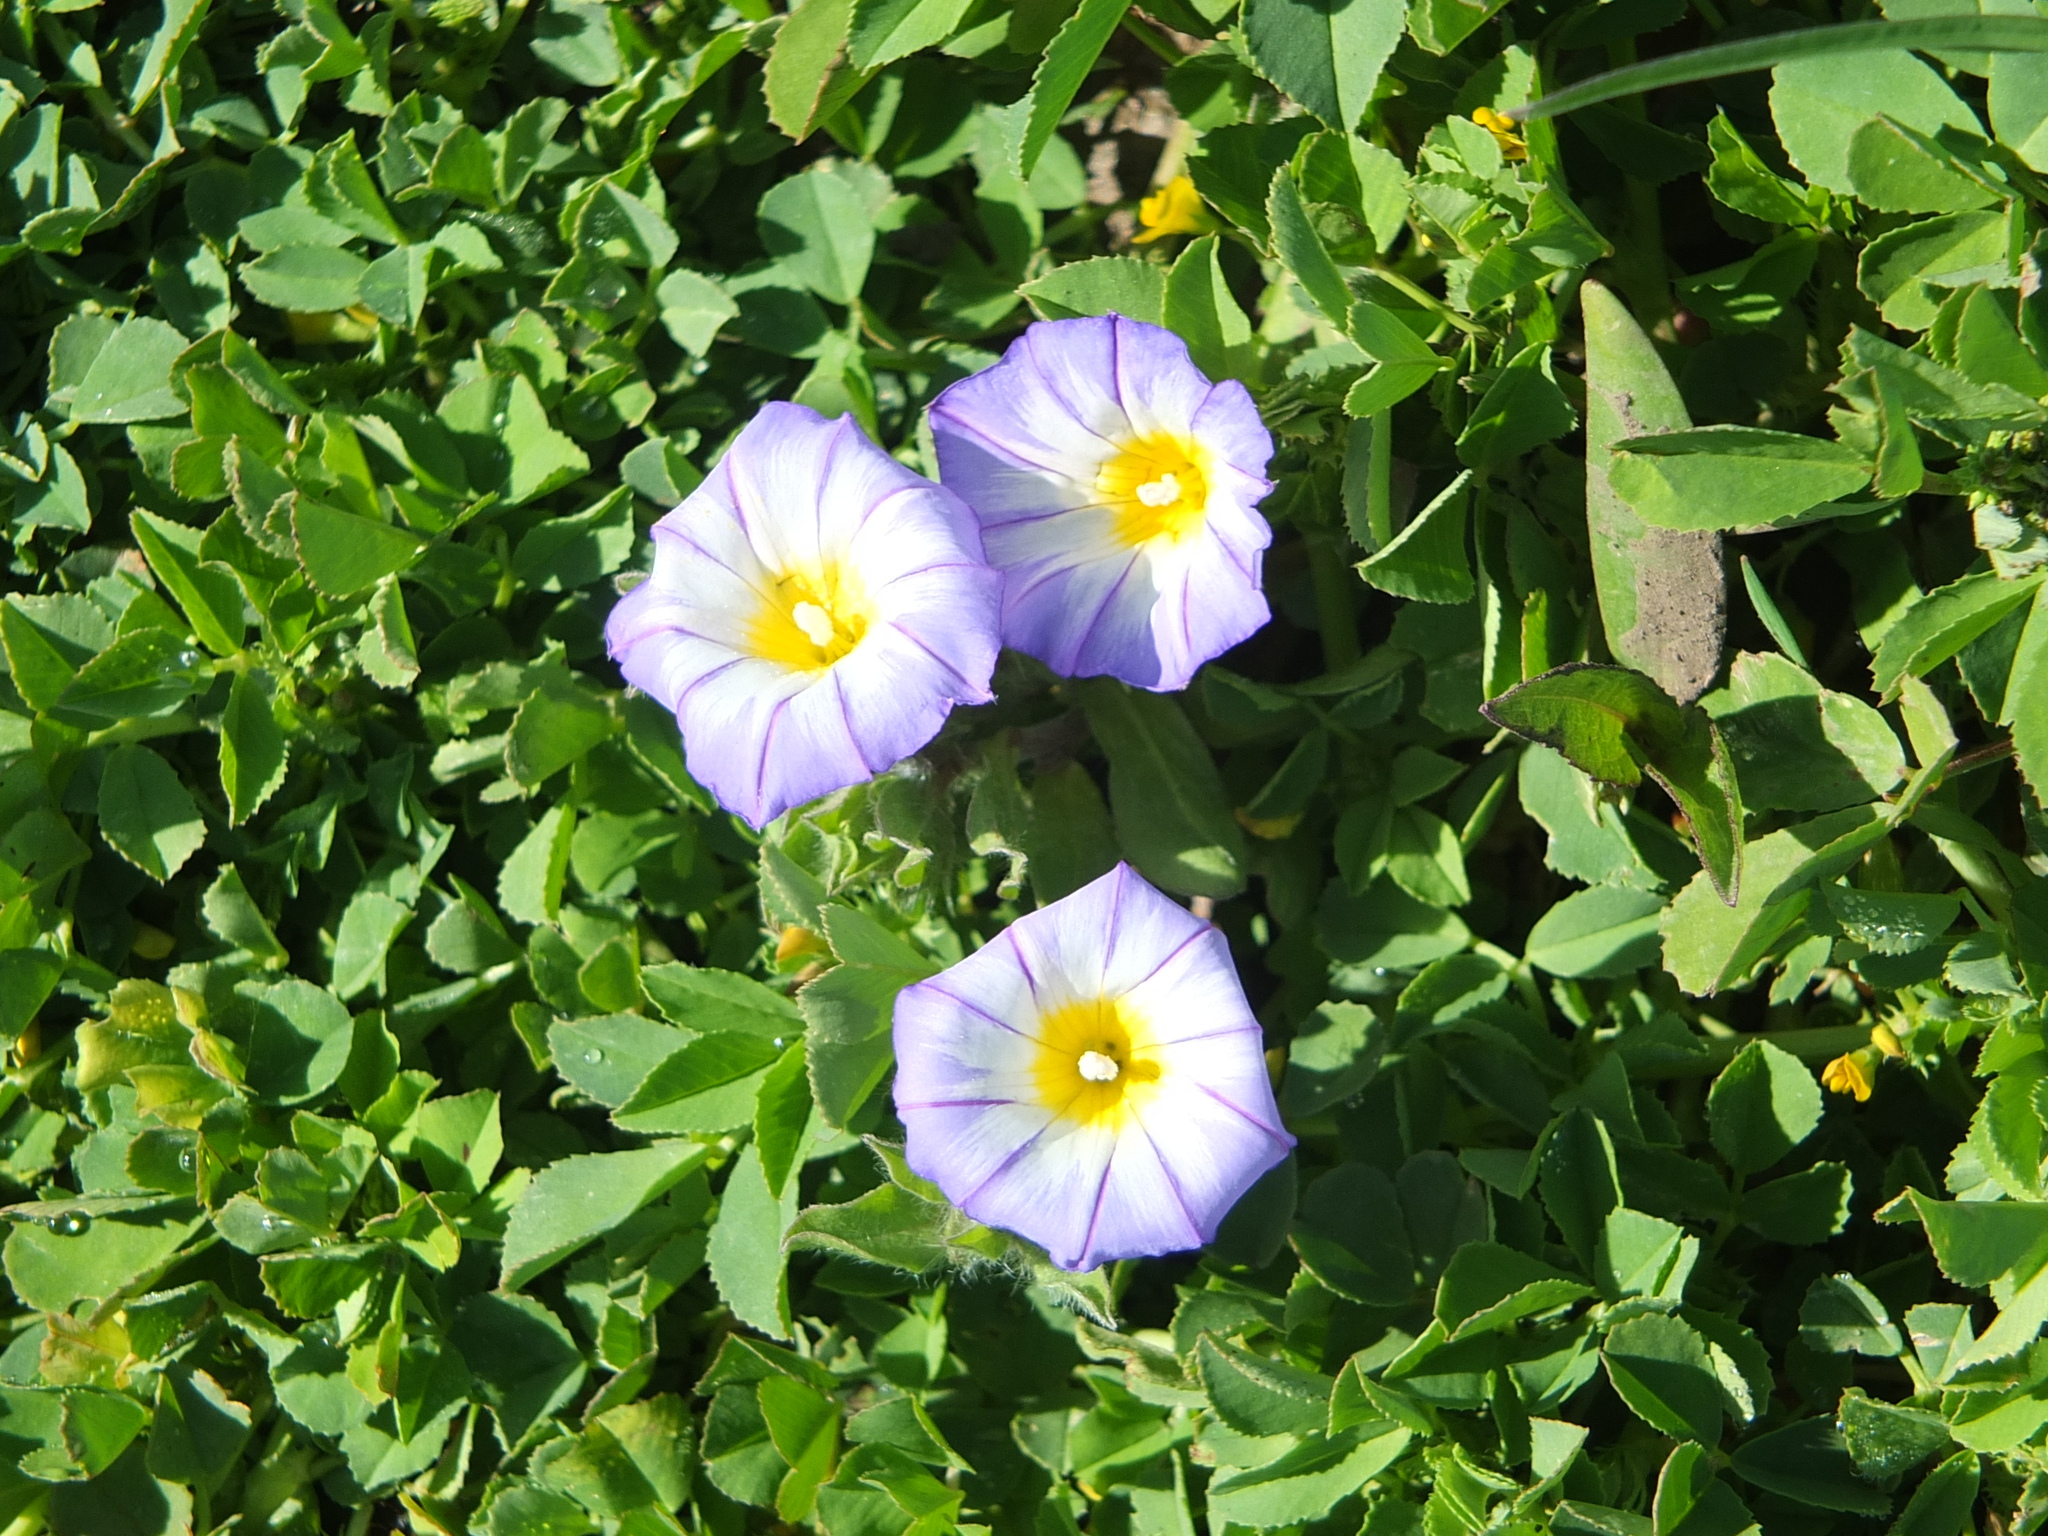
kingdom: Plantae
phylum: Tracheophyta
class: Magnoliopsida
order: Solanales
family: Convolvulaceae
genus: Convolvulus
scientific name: Convolvulus tricolor
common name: Dwarf morning-glory
